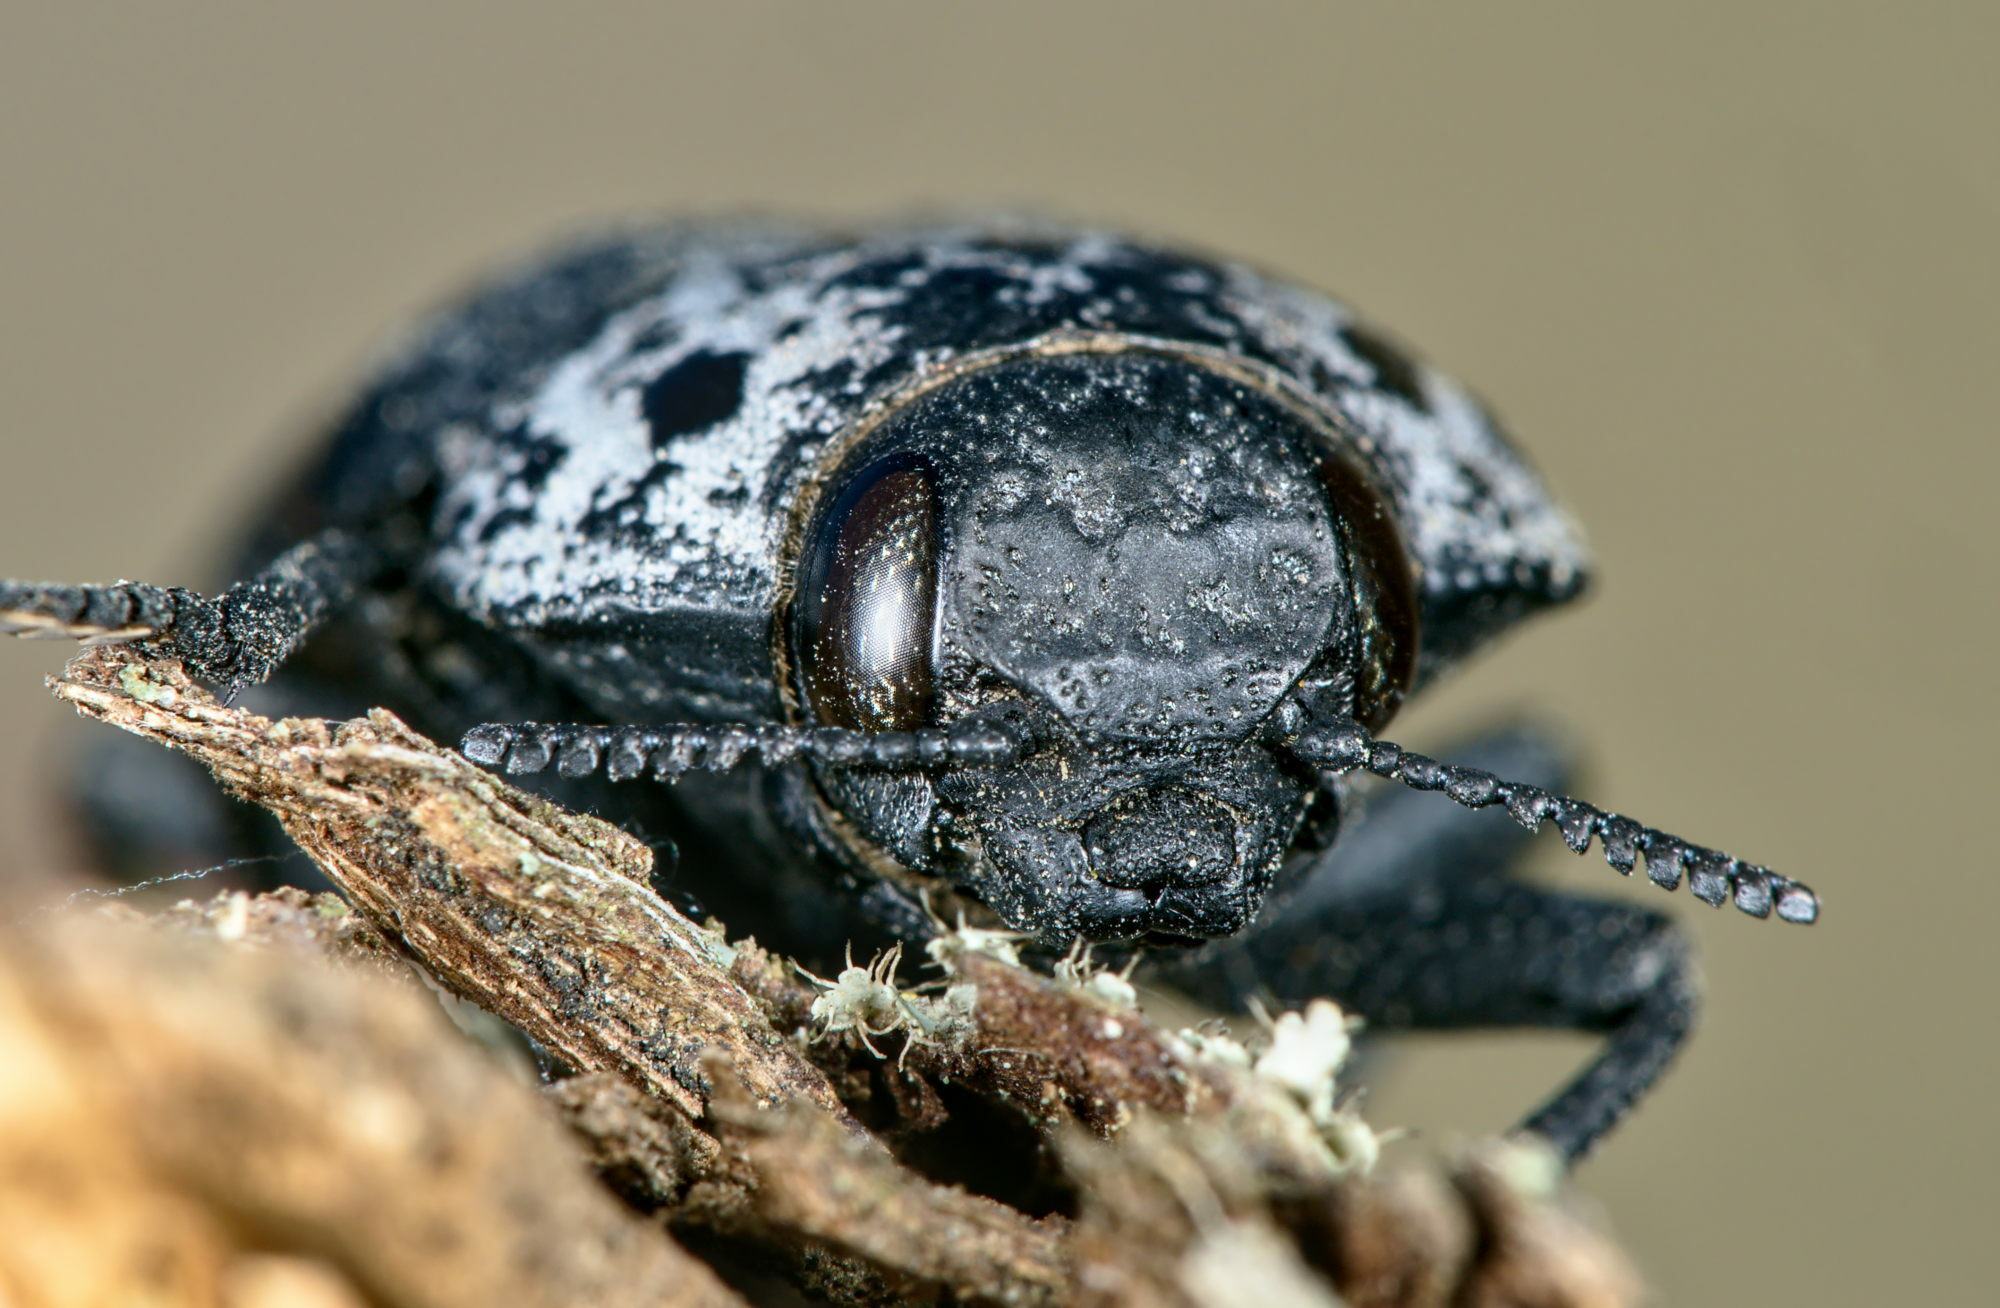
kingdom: Animalia
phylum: Arthropoda
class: Insecta
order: Coleoptera
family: Buprestidae
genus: Capnodis
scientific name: Capnodis tenebrionis
